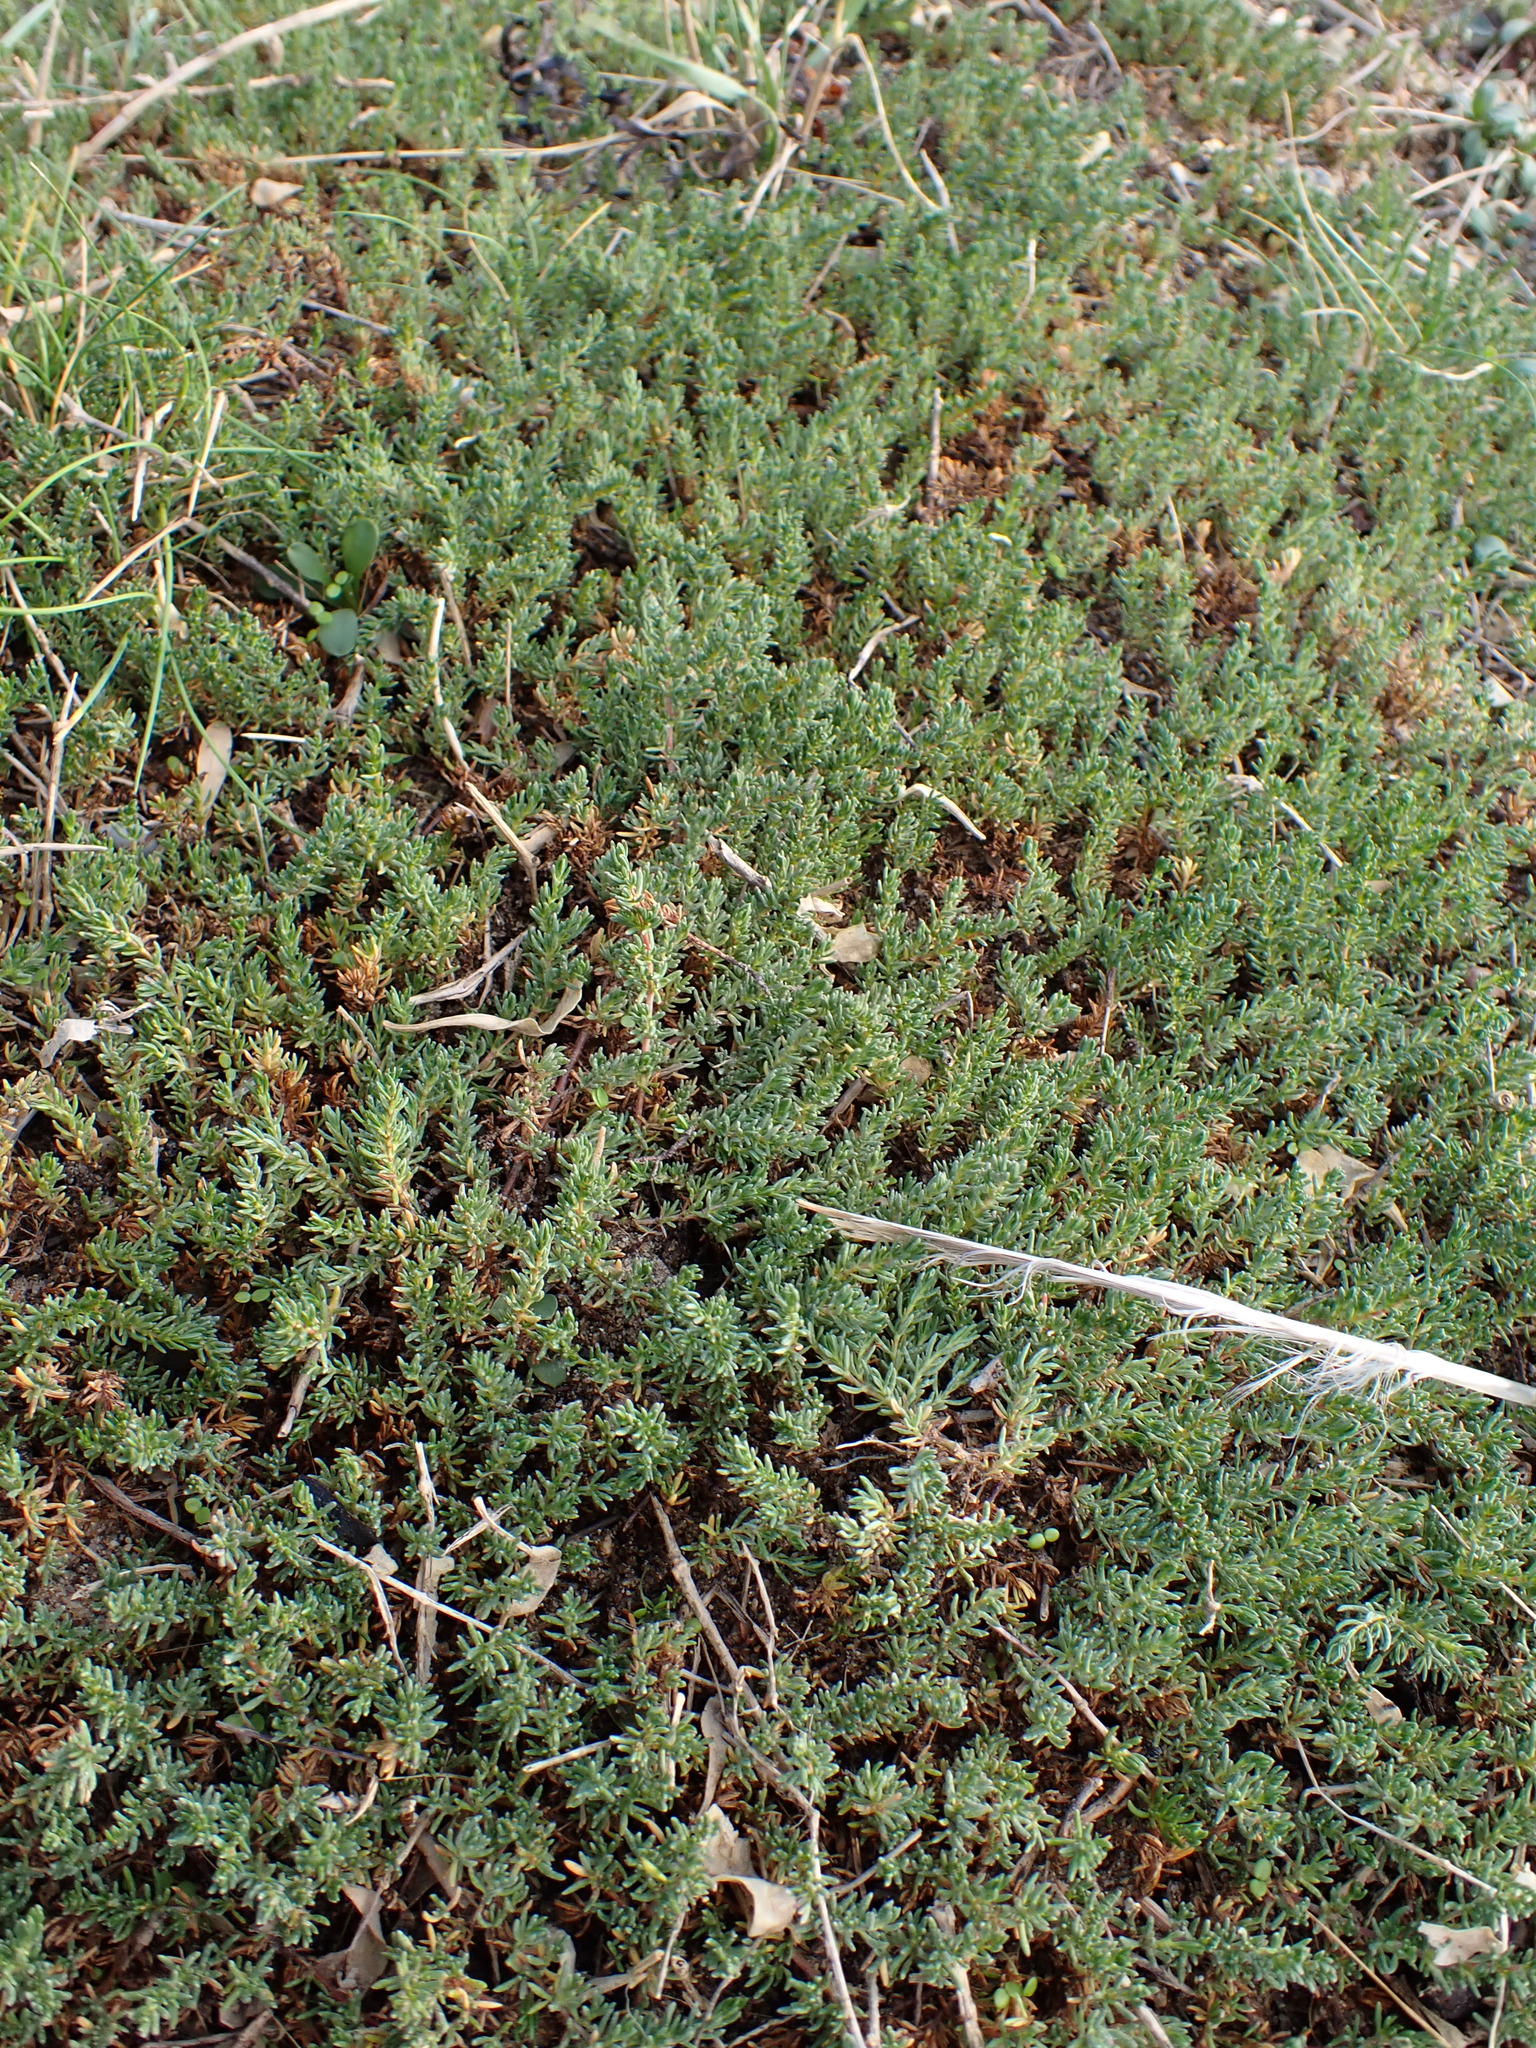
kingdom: Plantae
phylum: Tracheophyta
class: Magnoliopsida
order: Caryophyllales
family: Frankeniaceae
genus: Frankenia
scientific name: Frankenia laevis
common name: Sea-heath
